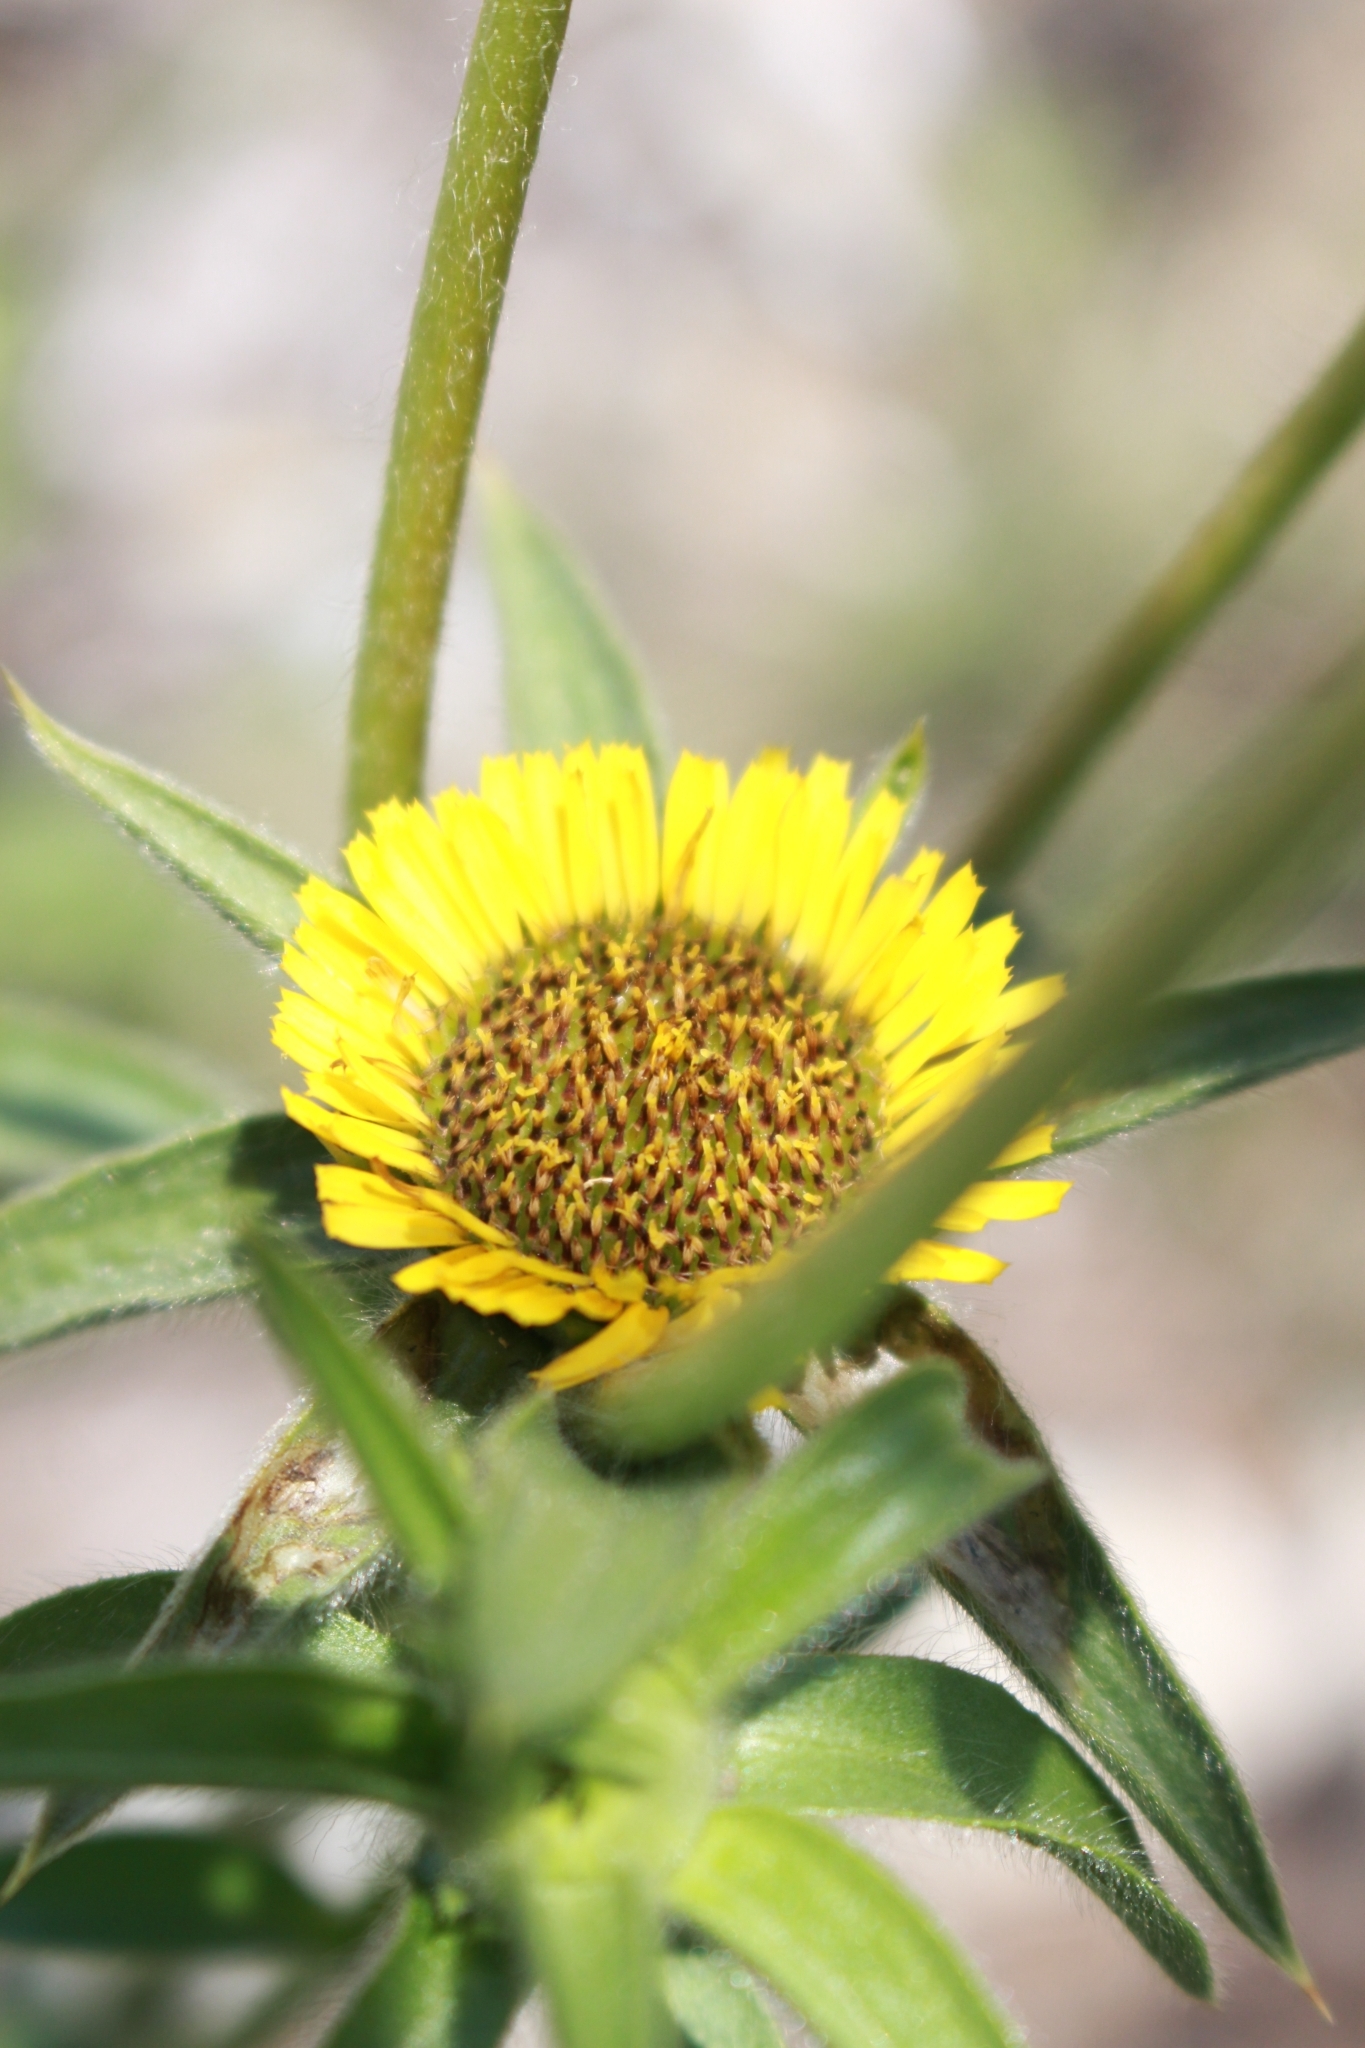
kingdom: Plantae
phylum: Tracheophyta
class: Magnoliopsida
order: Asterales
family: Asteraceae
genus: Pallenis
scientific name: Pallenis spinosa
